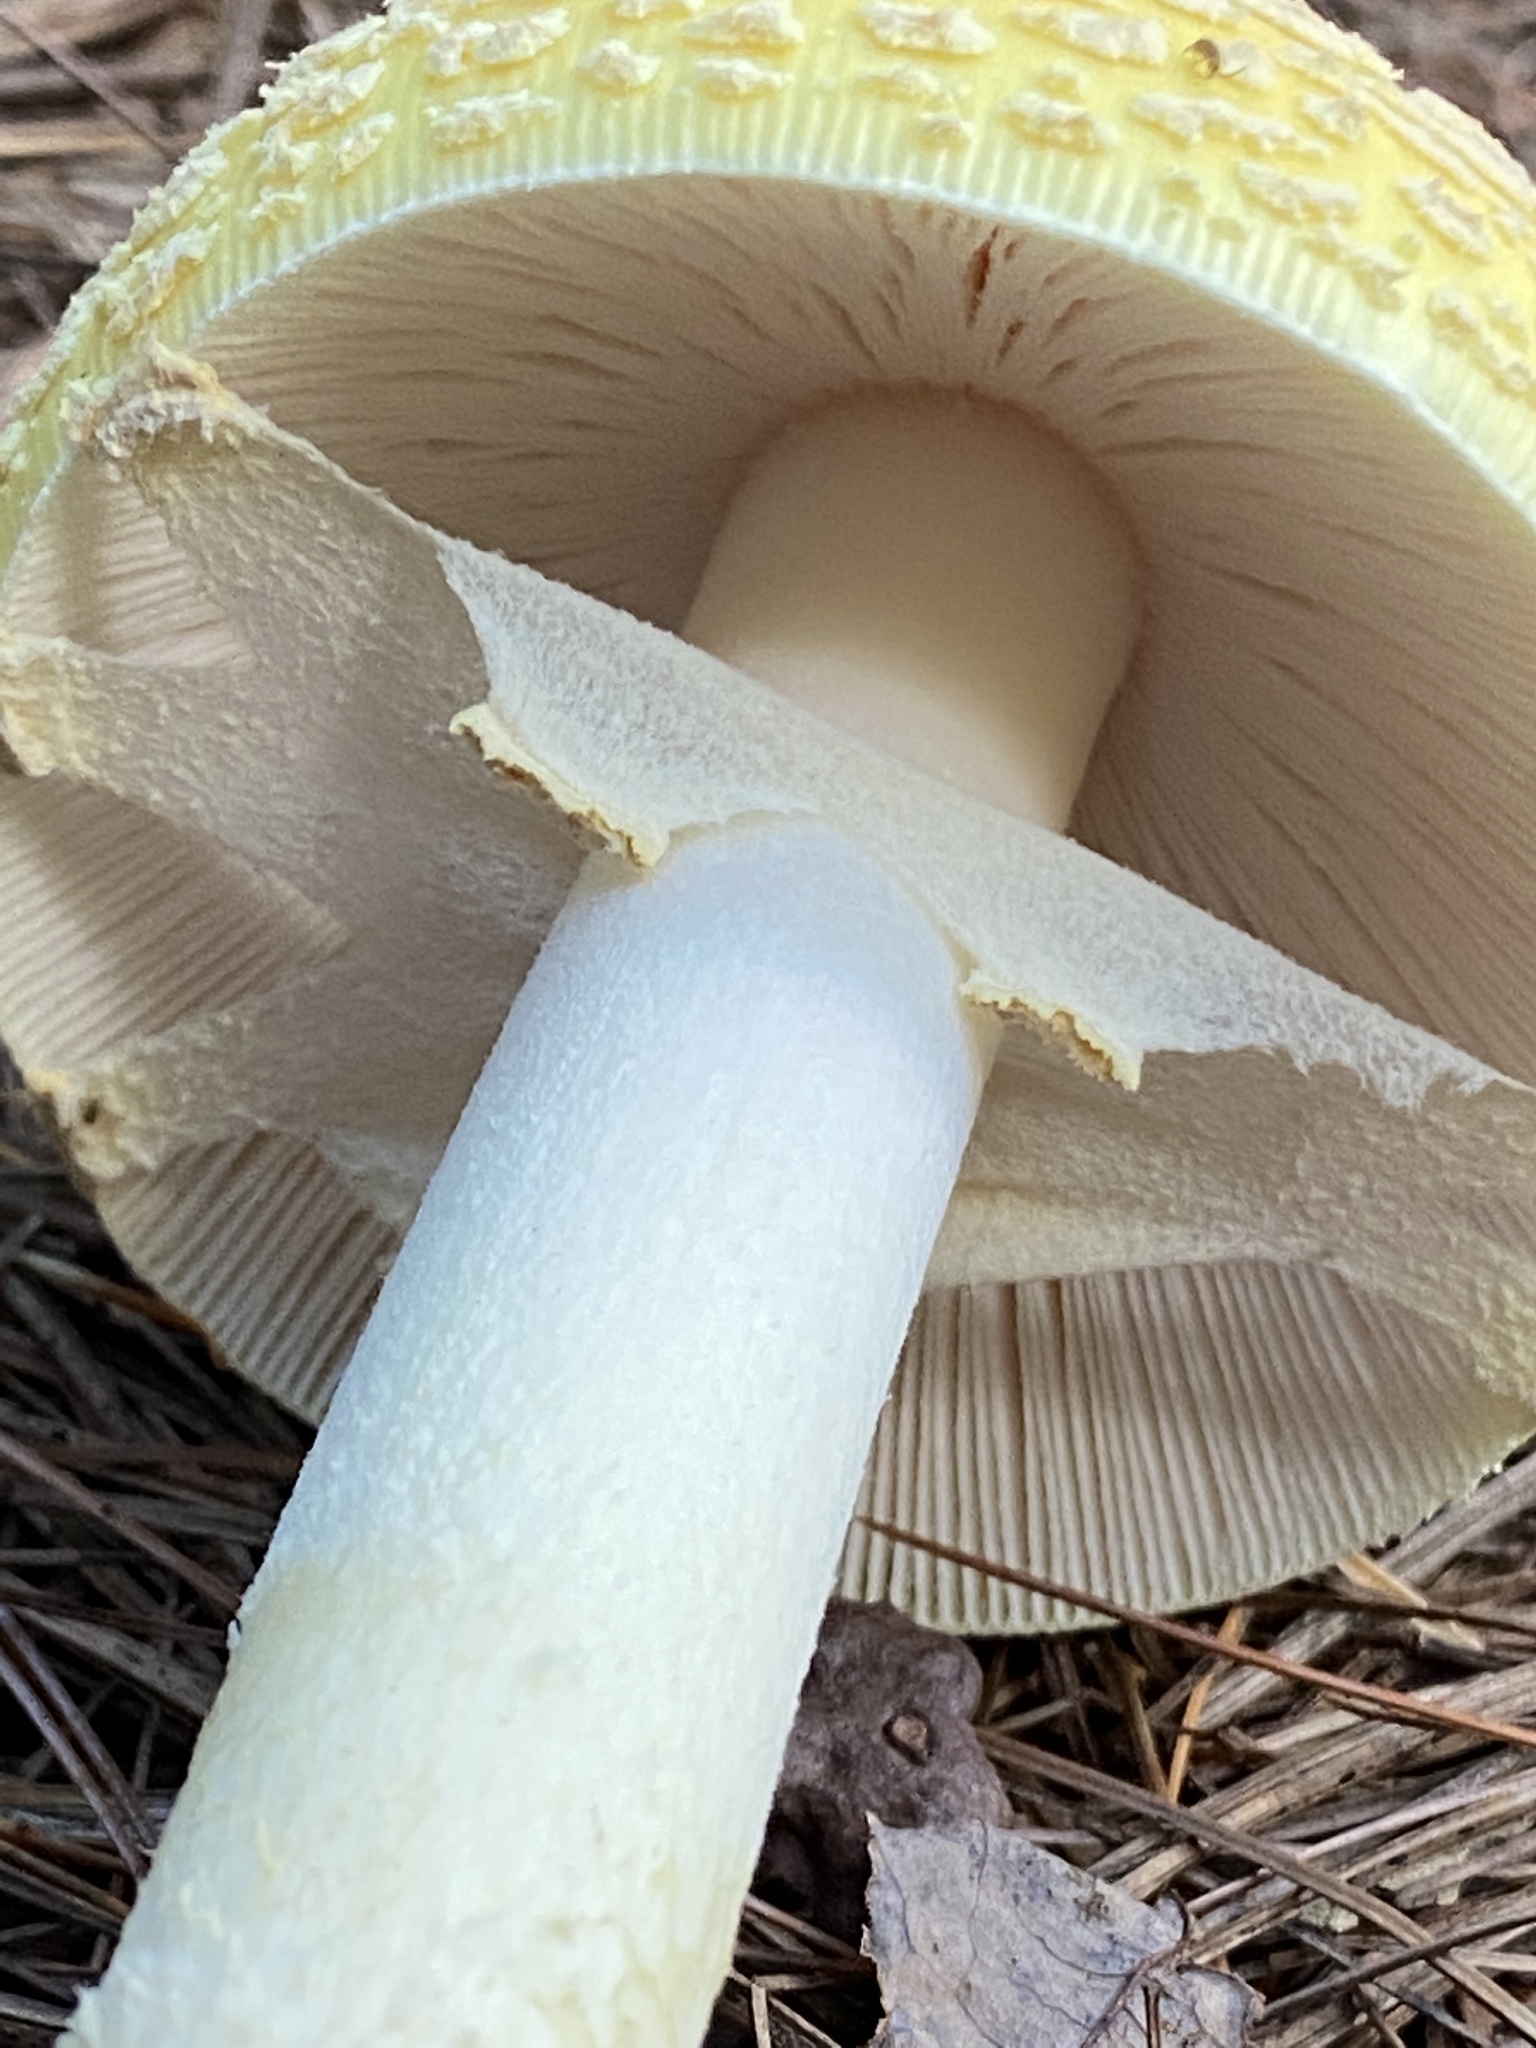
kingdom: Fungi
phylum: Basidiomycota
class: Agaricomycetes
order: Agaricales
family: Amanitaceae
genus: Amanita
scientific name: Amanita muscaria
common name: Fly agaric
